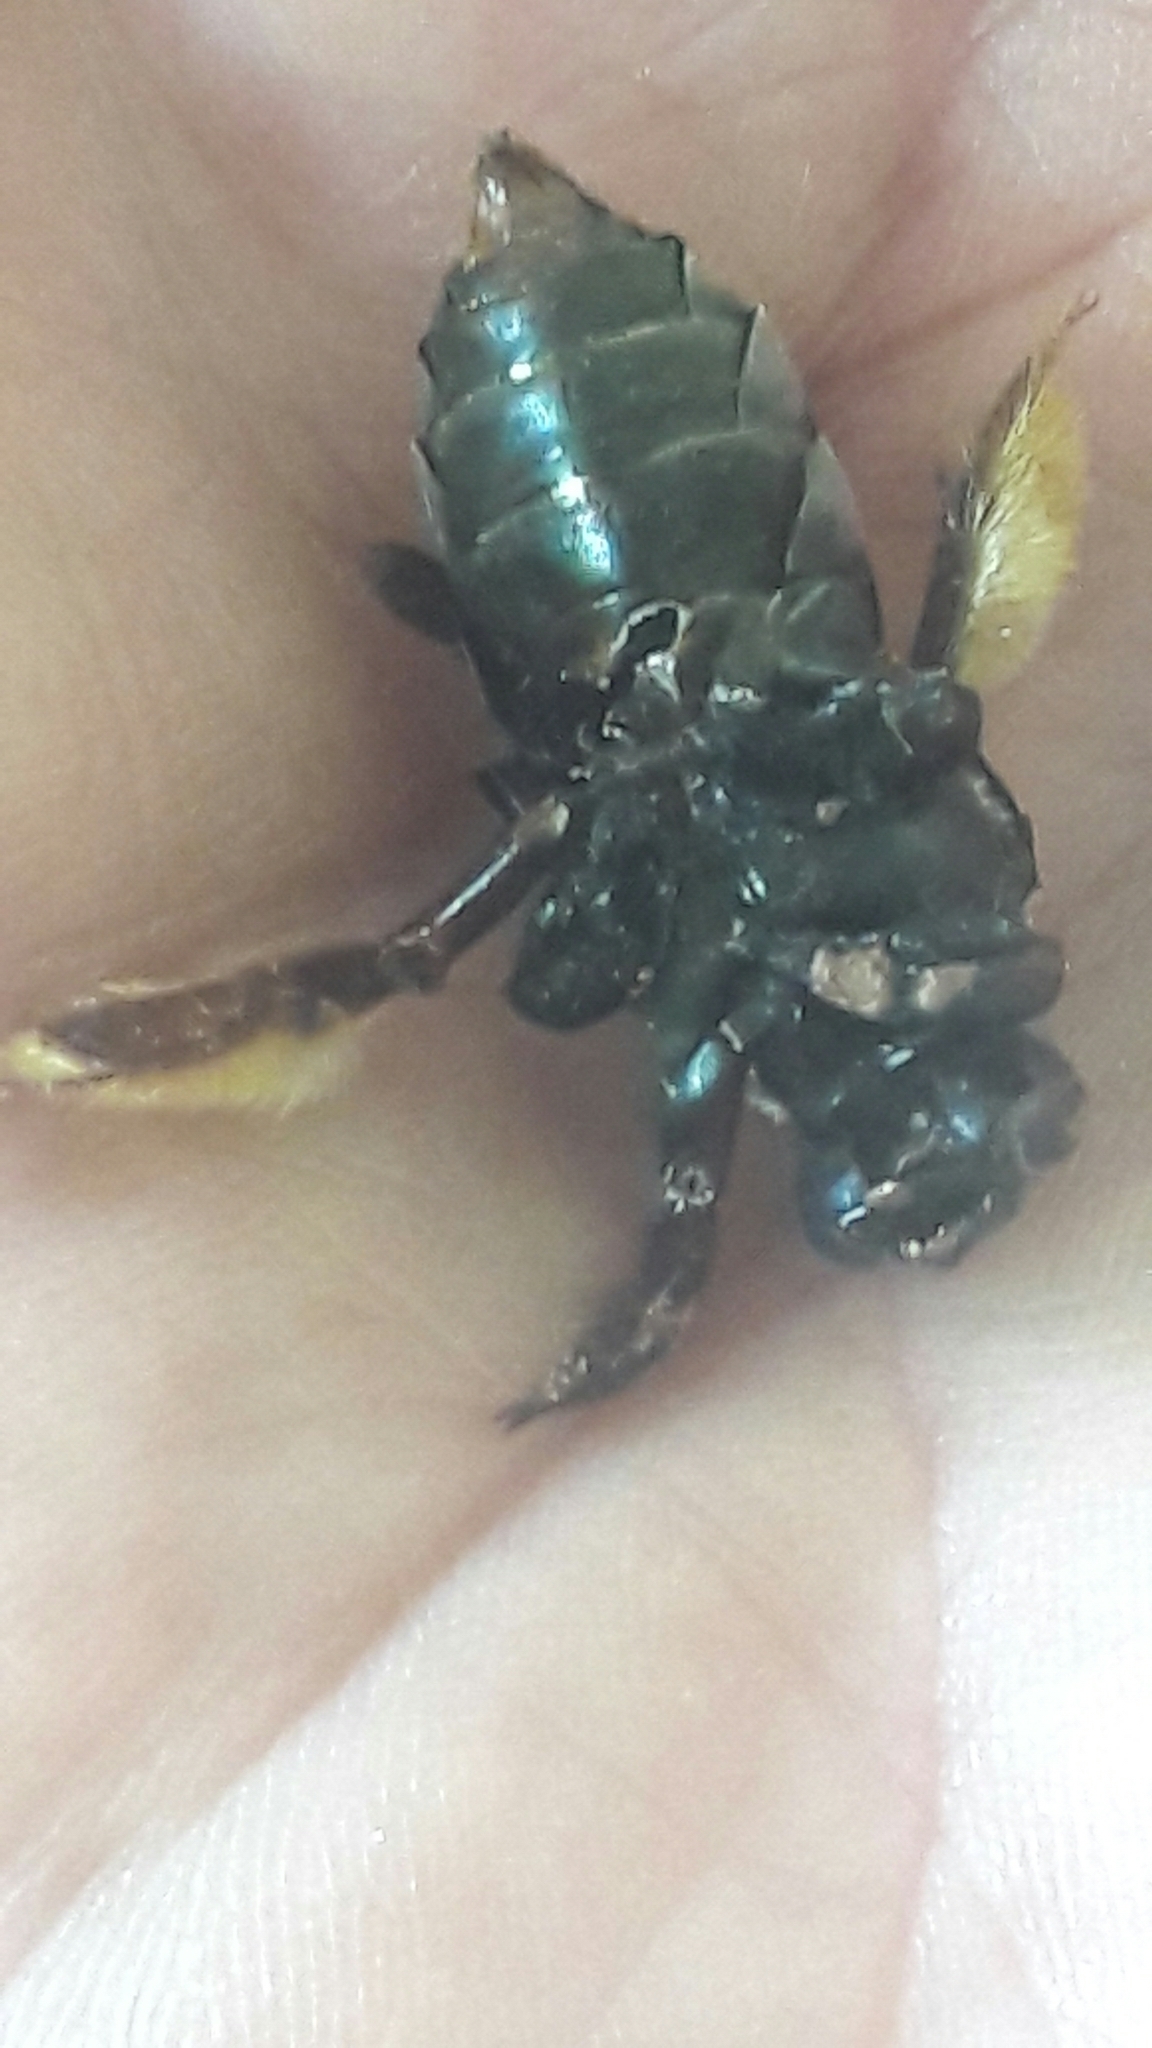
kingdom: Animalia
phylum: Arthropoda
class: Insecta
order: Hymenoptera
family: Apidae
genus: Centris
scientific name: Centris mocsaryi
